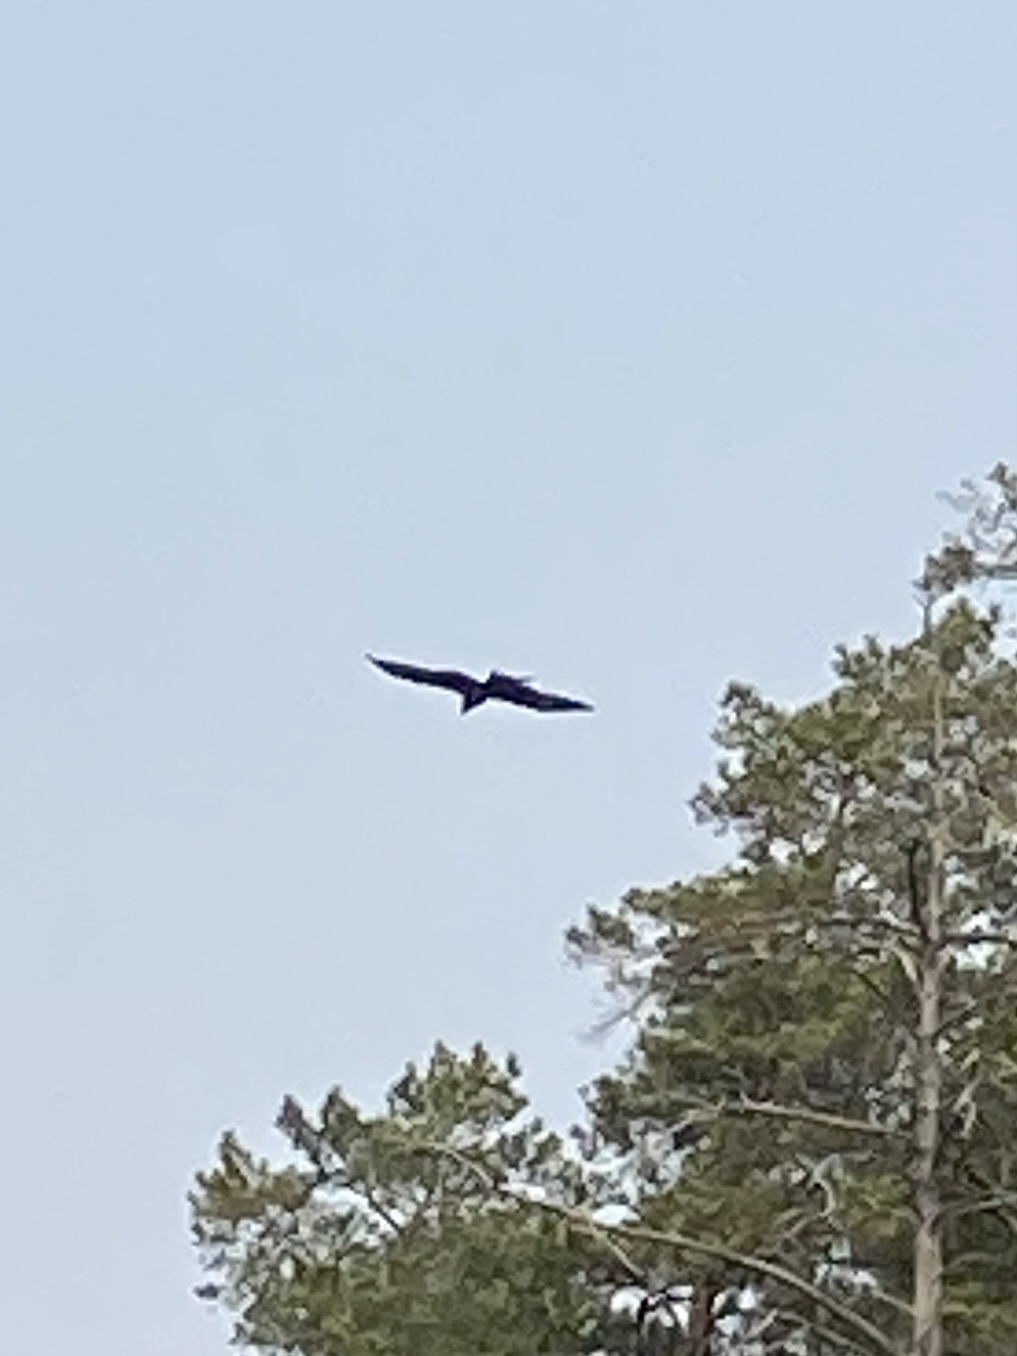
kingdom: Animalia
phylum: Chordata
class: Aves
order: Accipitriformes
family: Accipitridae
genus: Milvus
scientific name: Milvus migrans
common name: Black kite
